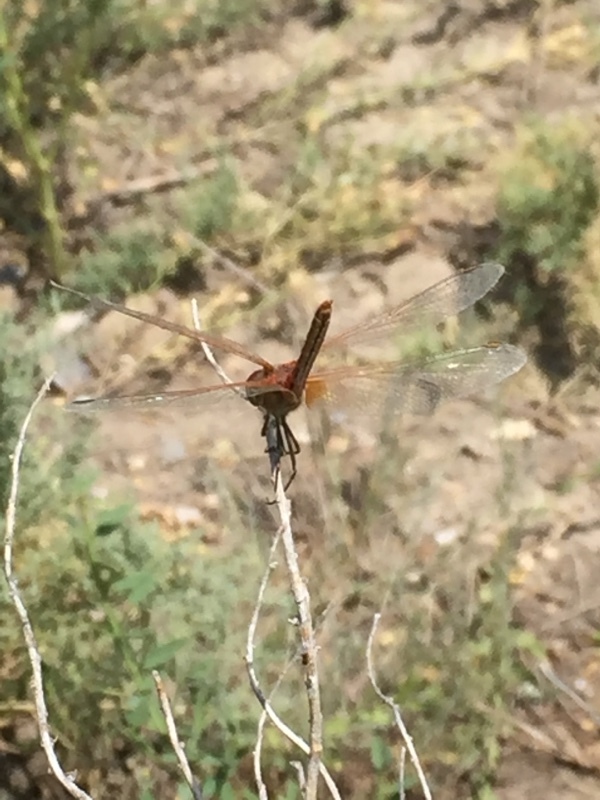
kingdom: Animalia
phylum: Arthropoda
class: Insecta
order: Odonata
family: Libellulidae
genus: Sympetrum
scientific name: Sympetrum fonscolombii
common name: Red-veined darter
